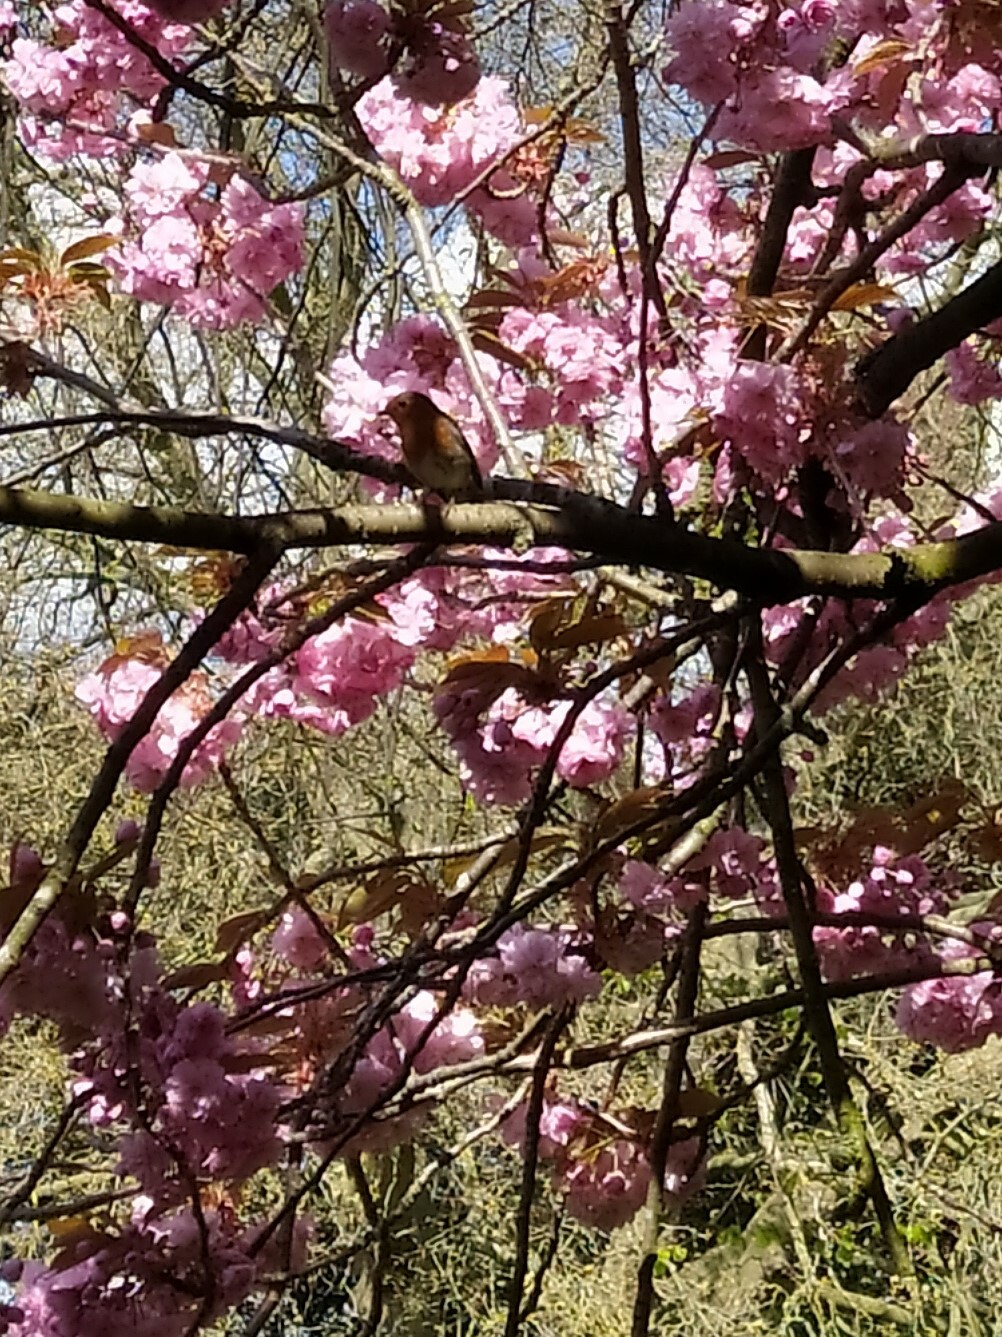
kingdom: Animalia
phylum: Chordata
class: Aves
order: Passeriformes
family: Muscicapidae
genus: Erithacus
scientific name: Erithacus rubecula
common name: European robin
